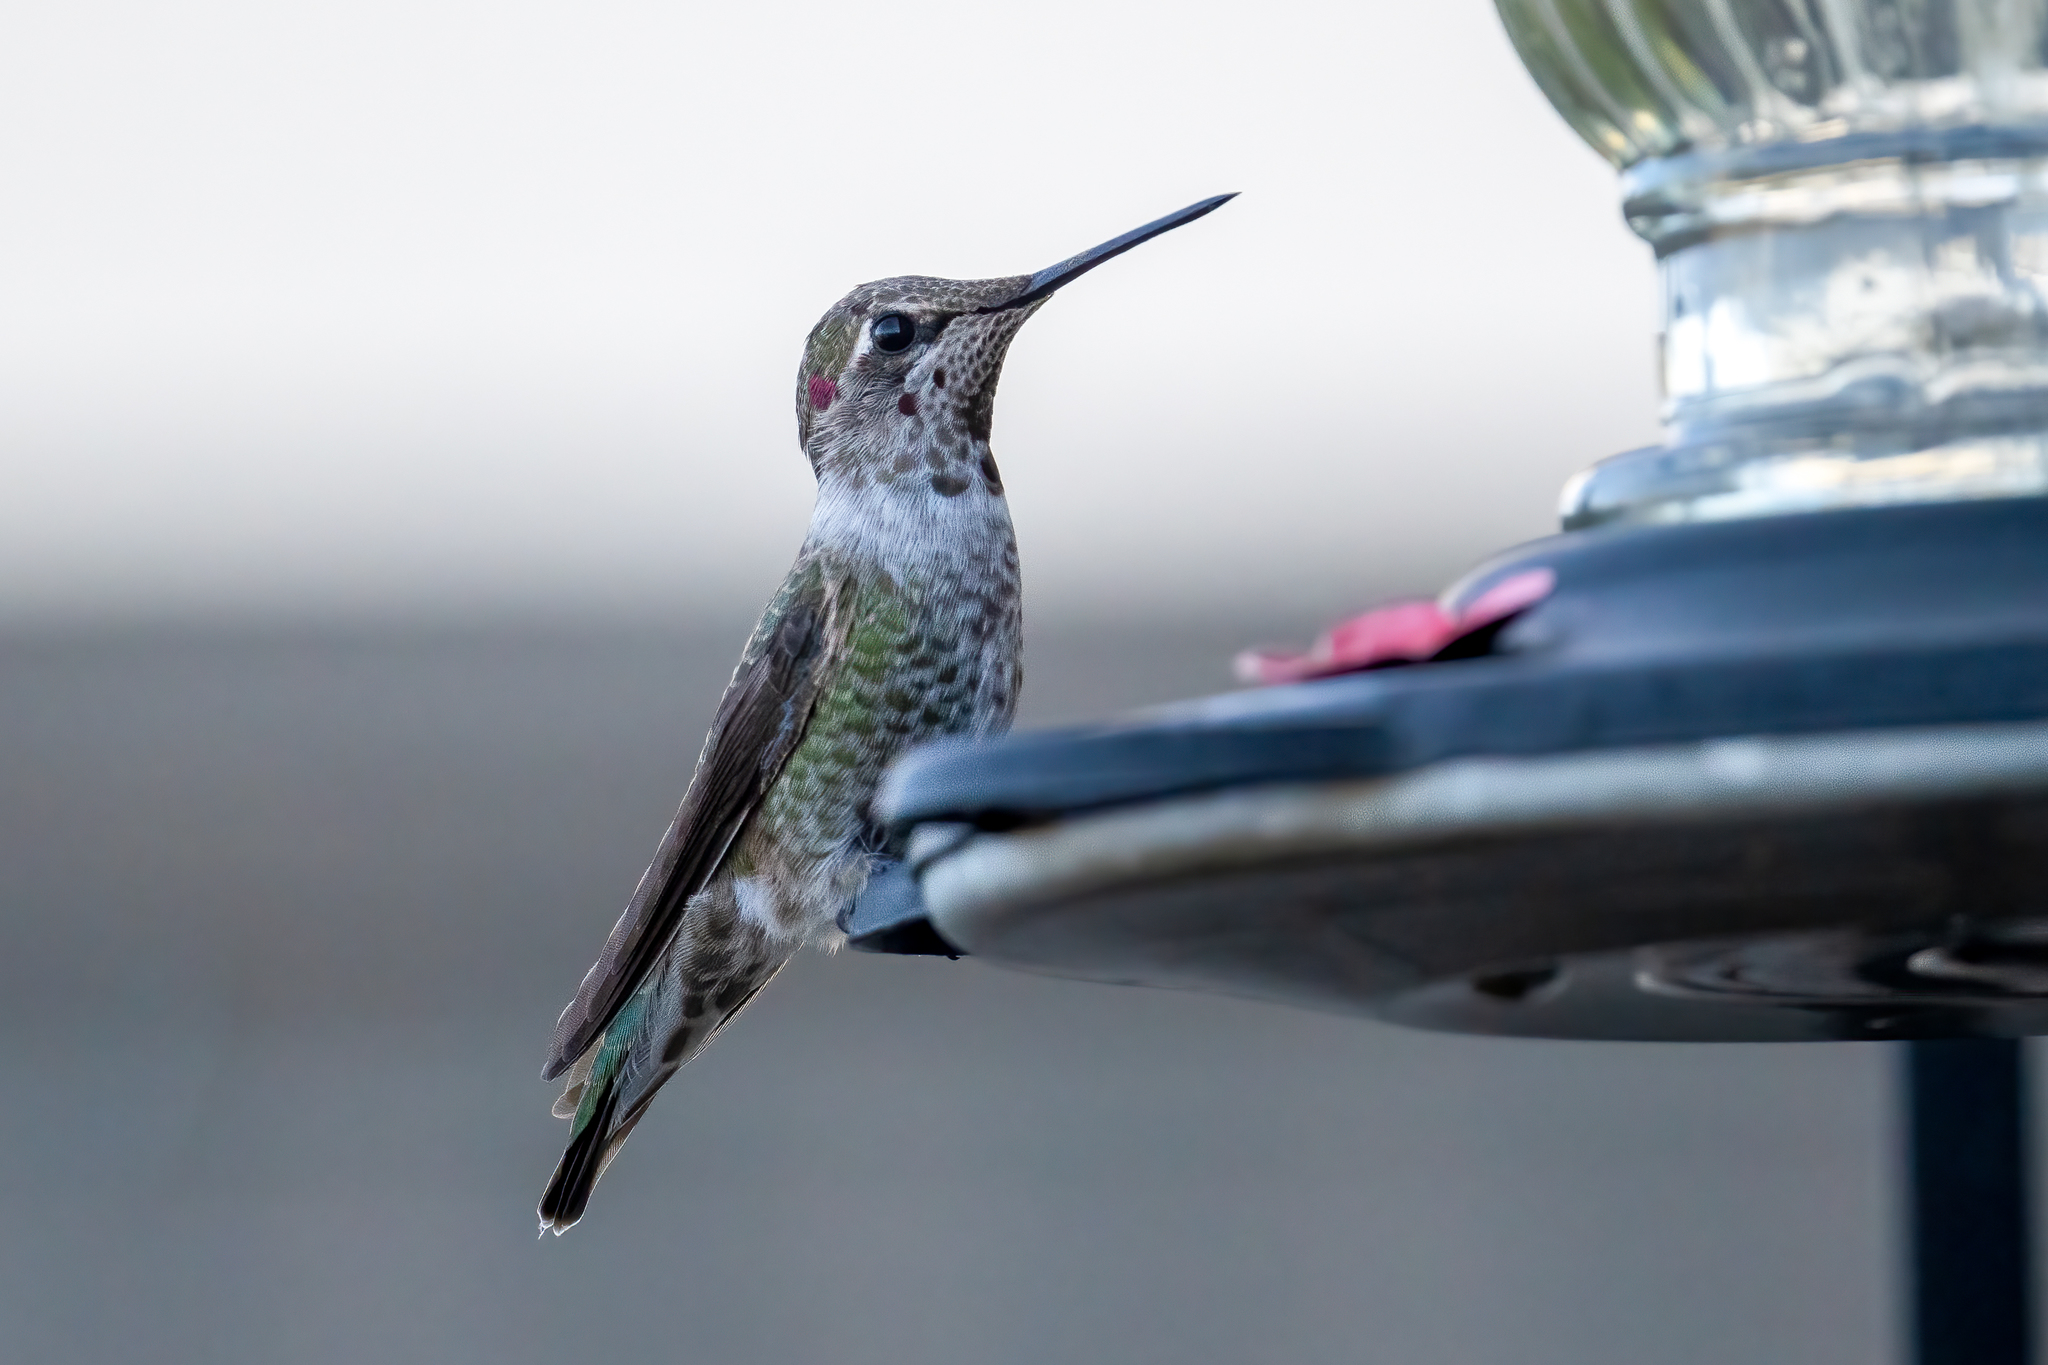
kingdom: Animalia
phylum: Chordata
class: Aves
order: Apodiformes
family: Trochilidae
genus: Calypte
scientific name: Calypte anna
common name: Anna's hummingbird
